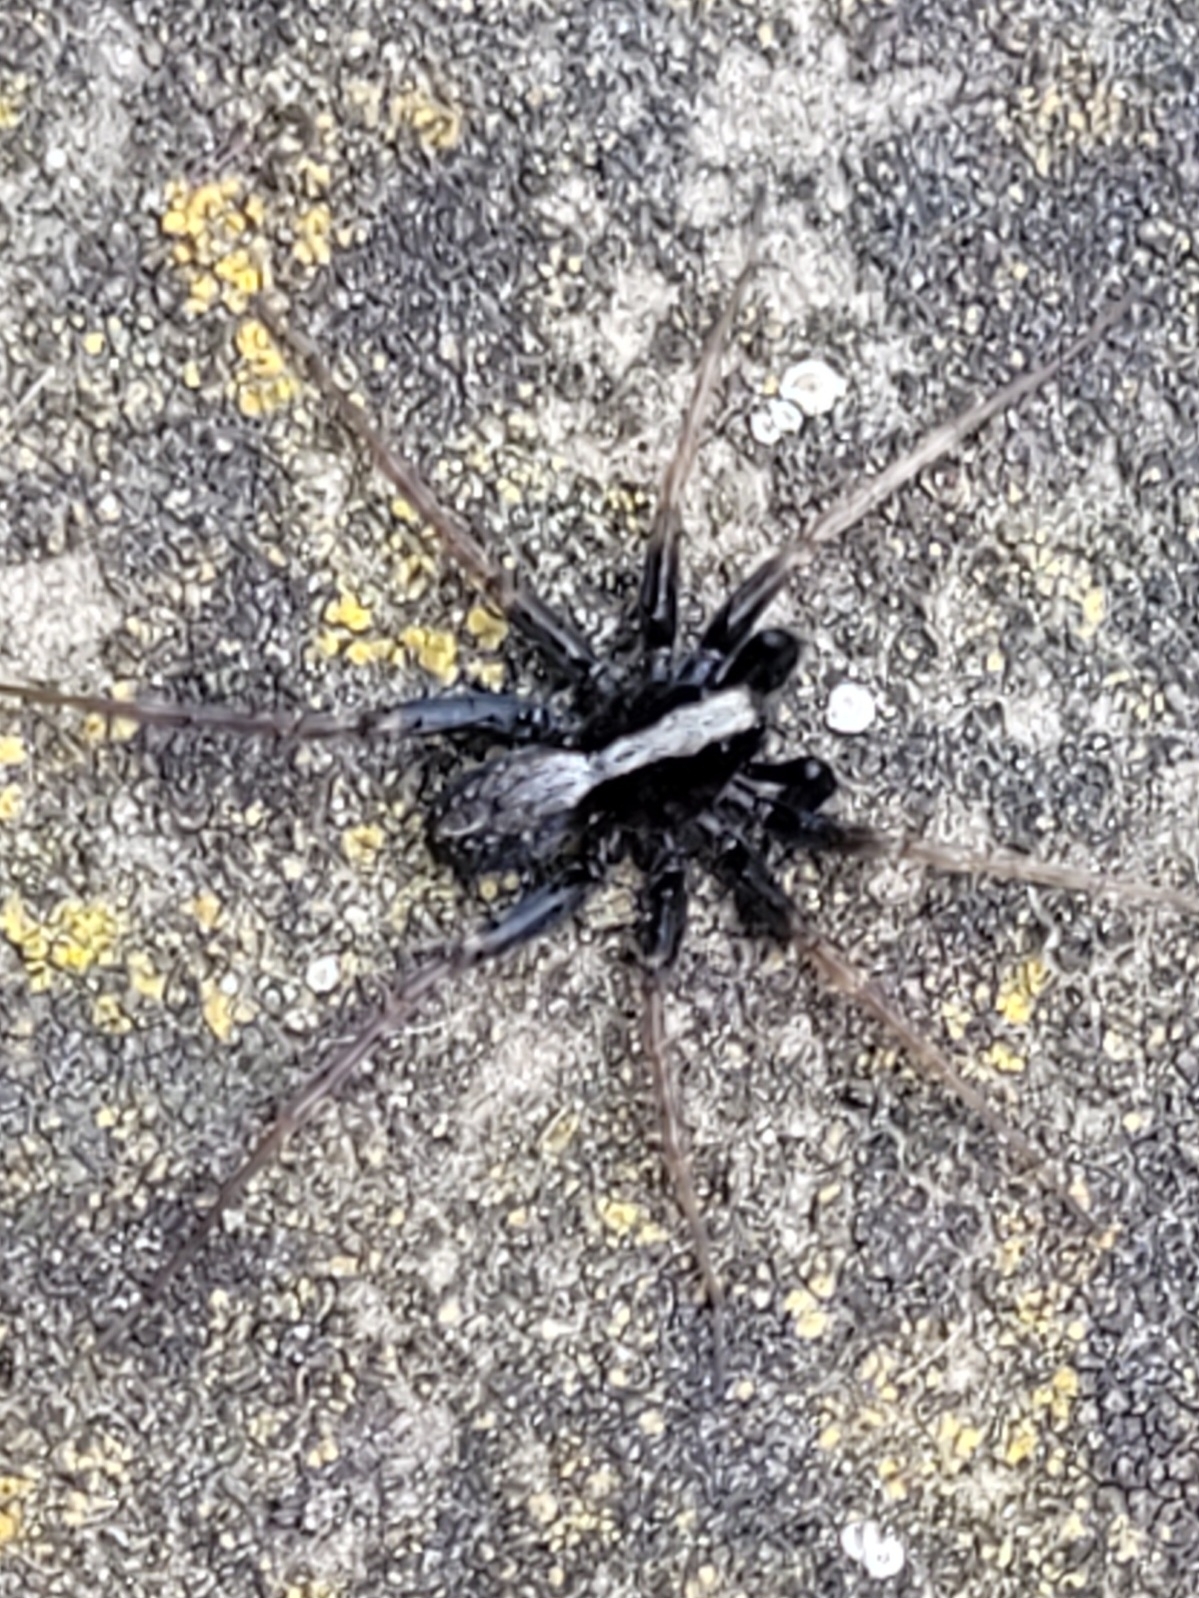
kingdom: Animalia
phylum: Arthropoda
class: Arachnida
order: Araneae
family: Lycosidae
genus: Pardosa
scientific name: Pardosa
